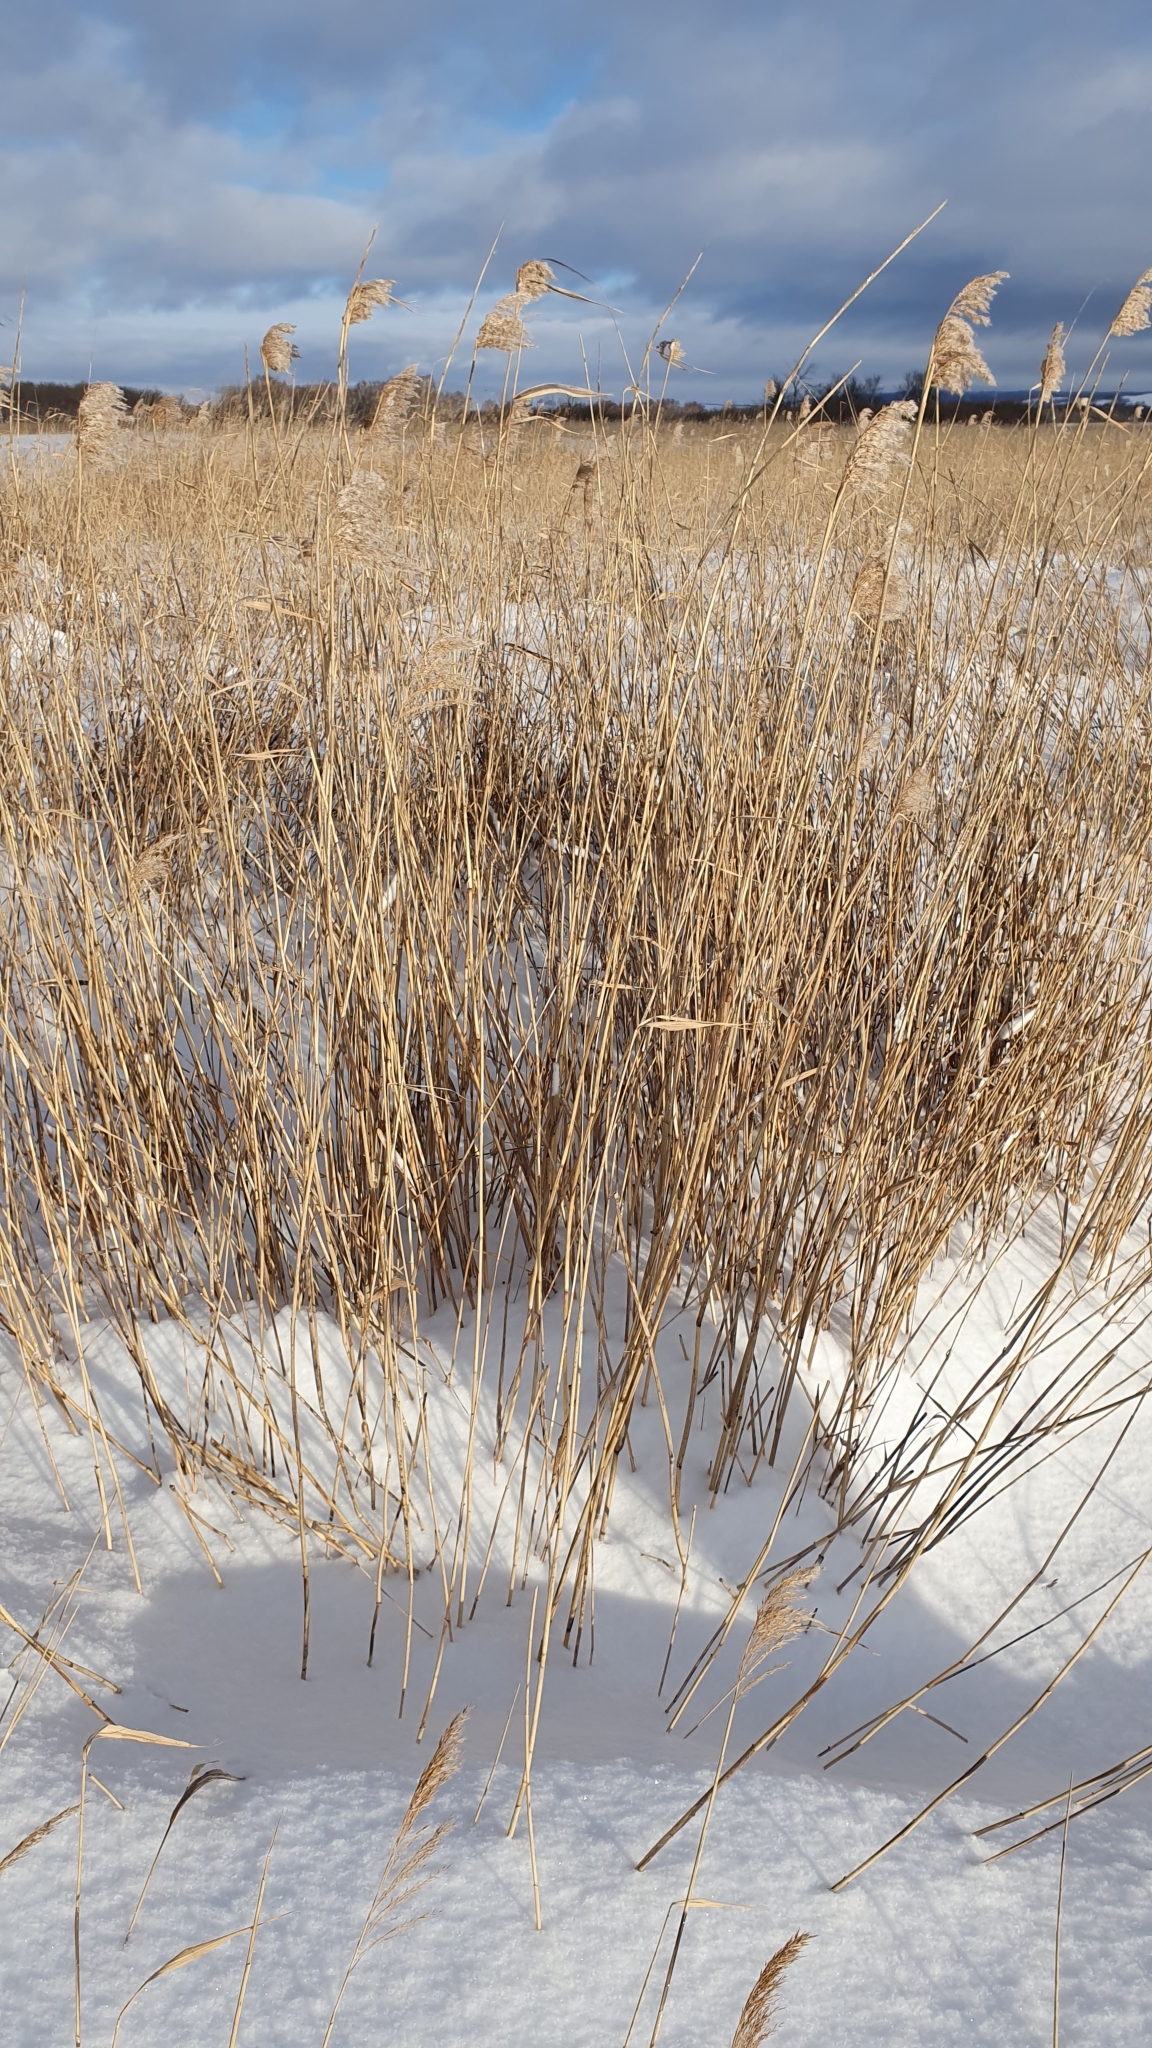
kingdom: Plantae
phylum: Tracheophyta
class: Liliopsida
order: Poales
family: Poaceae
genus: Phragmites
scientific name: Phragmites australis
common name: Common reed
